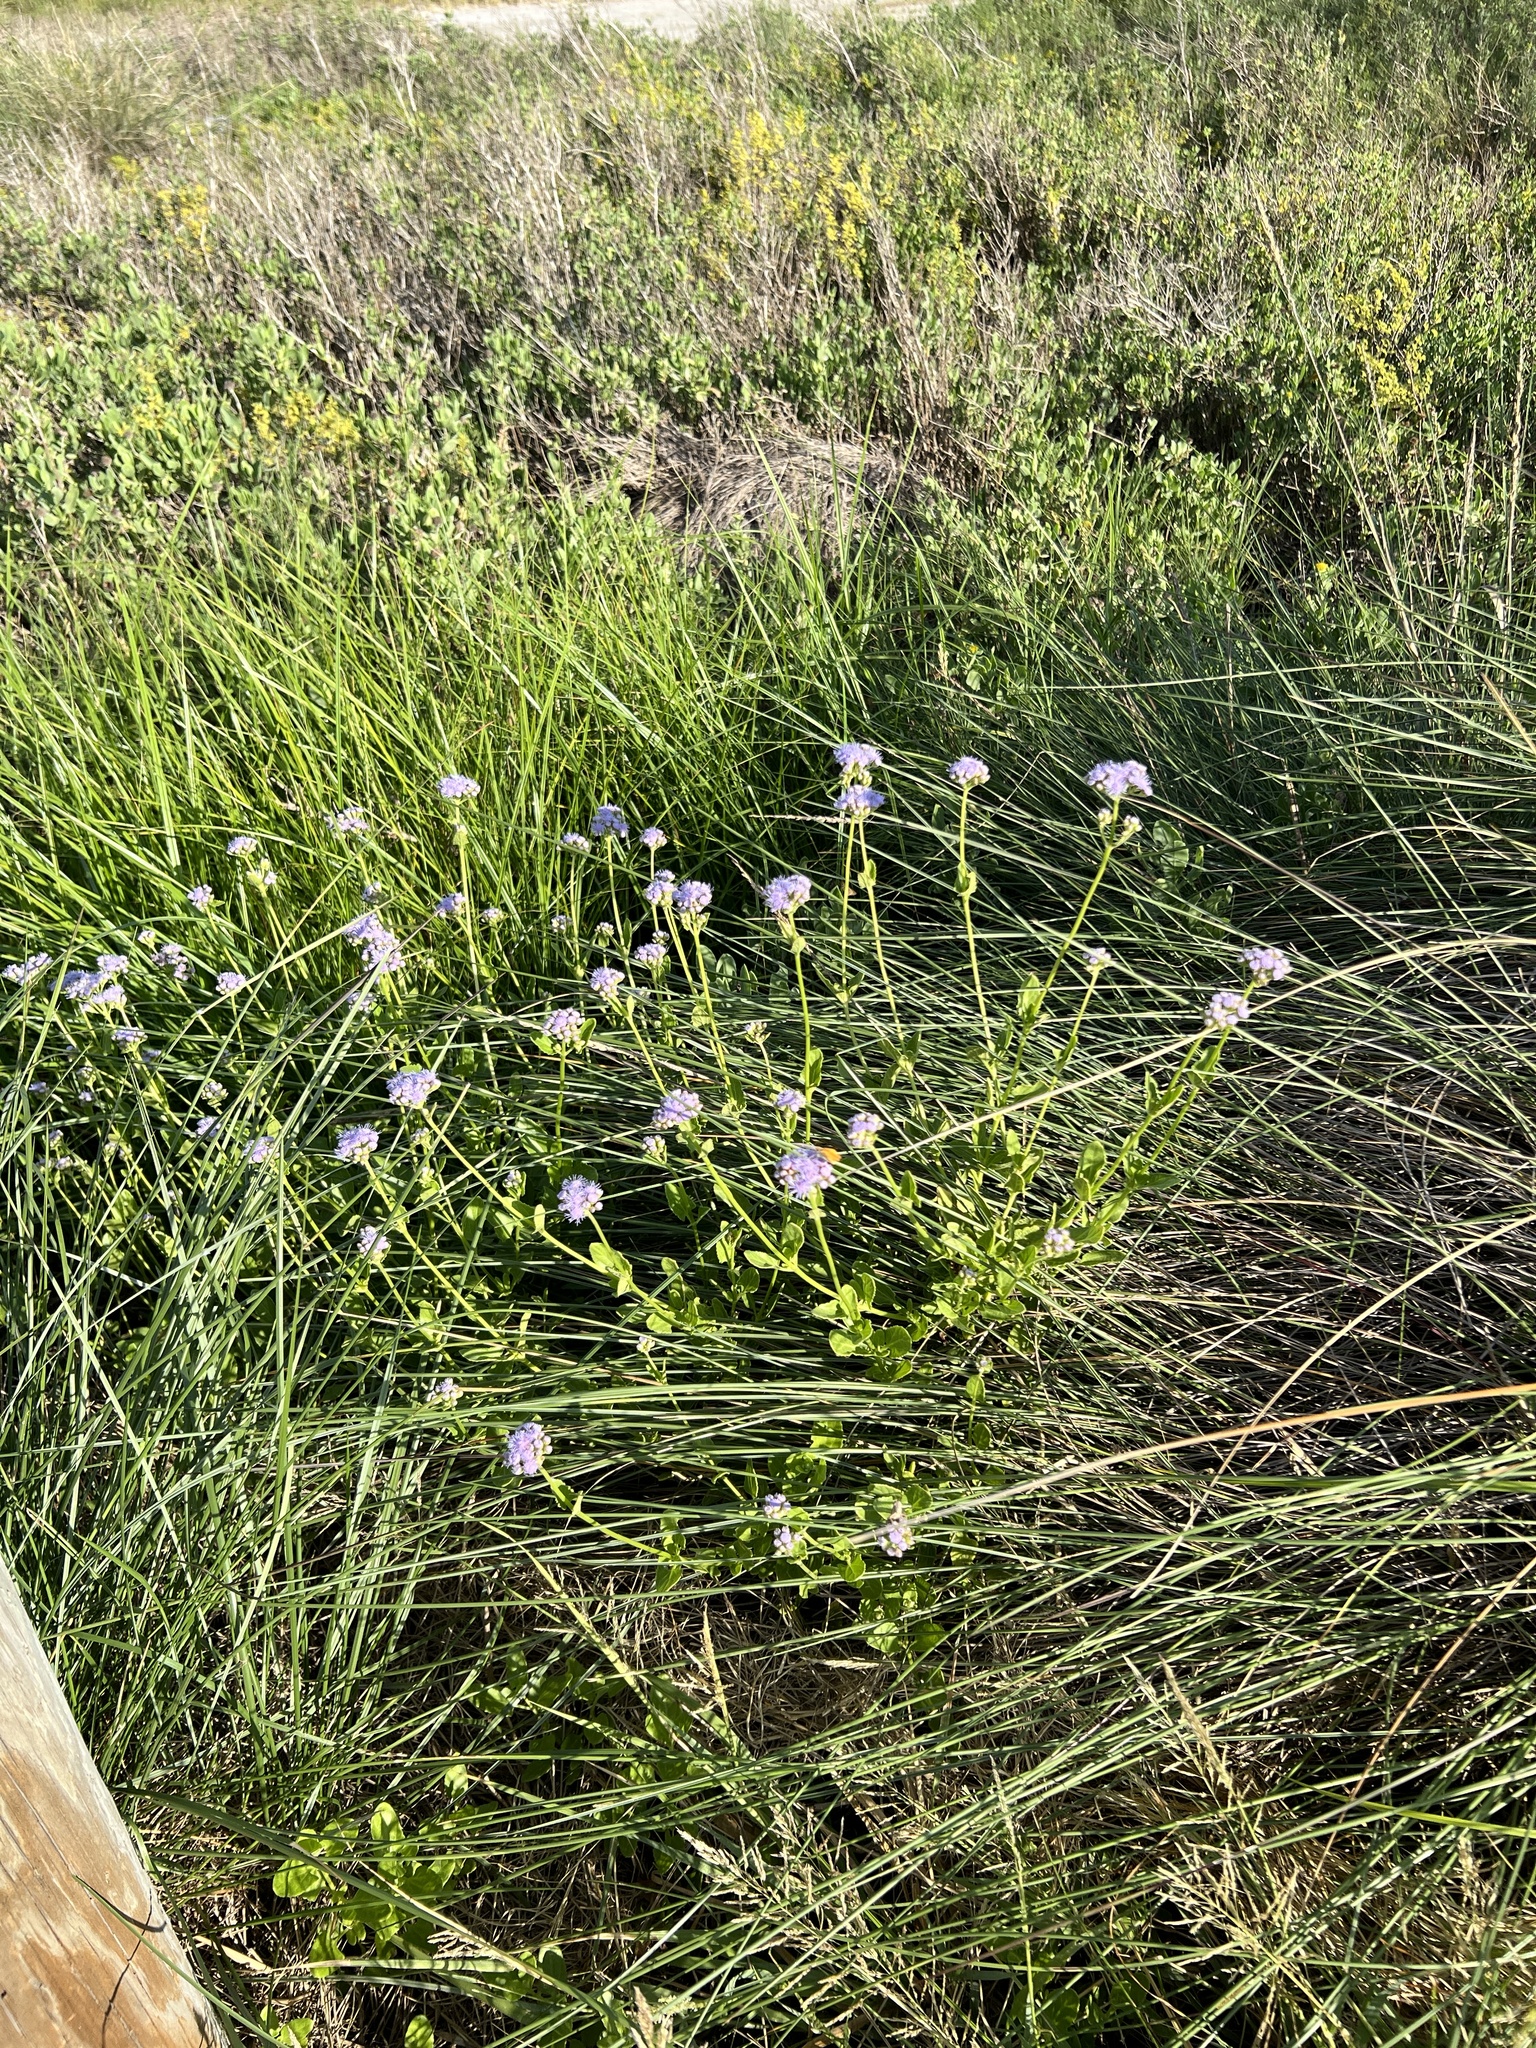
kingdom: Plantae
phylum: Tracheophyta
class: Magnoliopsida
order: Asterales
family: Asteraceae
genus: Conoclinium
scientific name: Conoclinium betonicifolium
